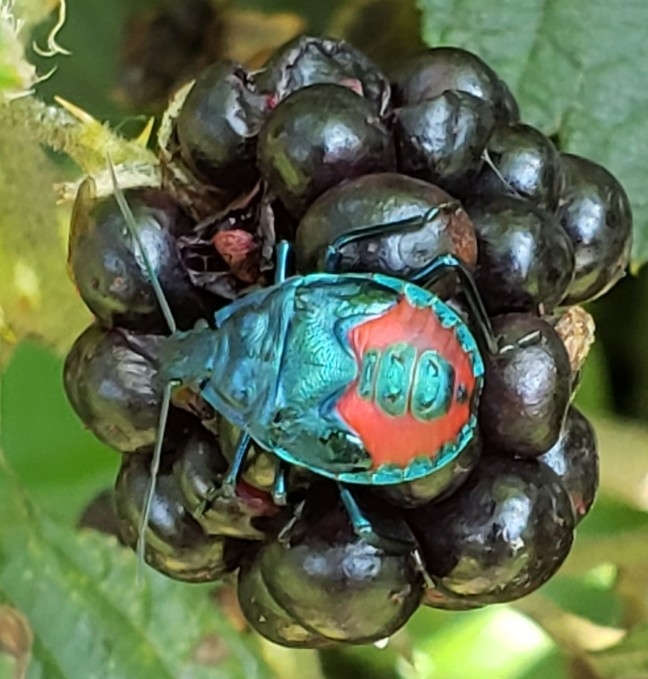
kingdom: Animalia
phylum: Arthropoda
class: Insecta
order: Hemiptera
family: Pentatomidae
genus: Euthyrhynchus
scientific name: Euthyrhynchus floridanus
